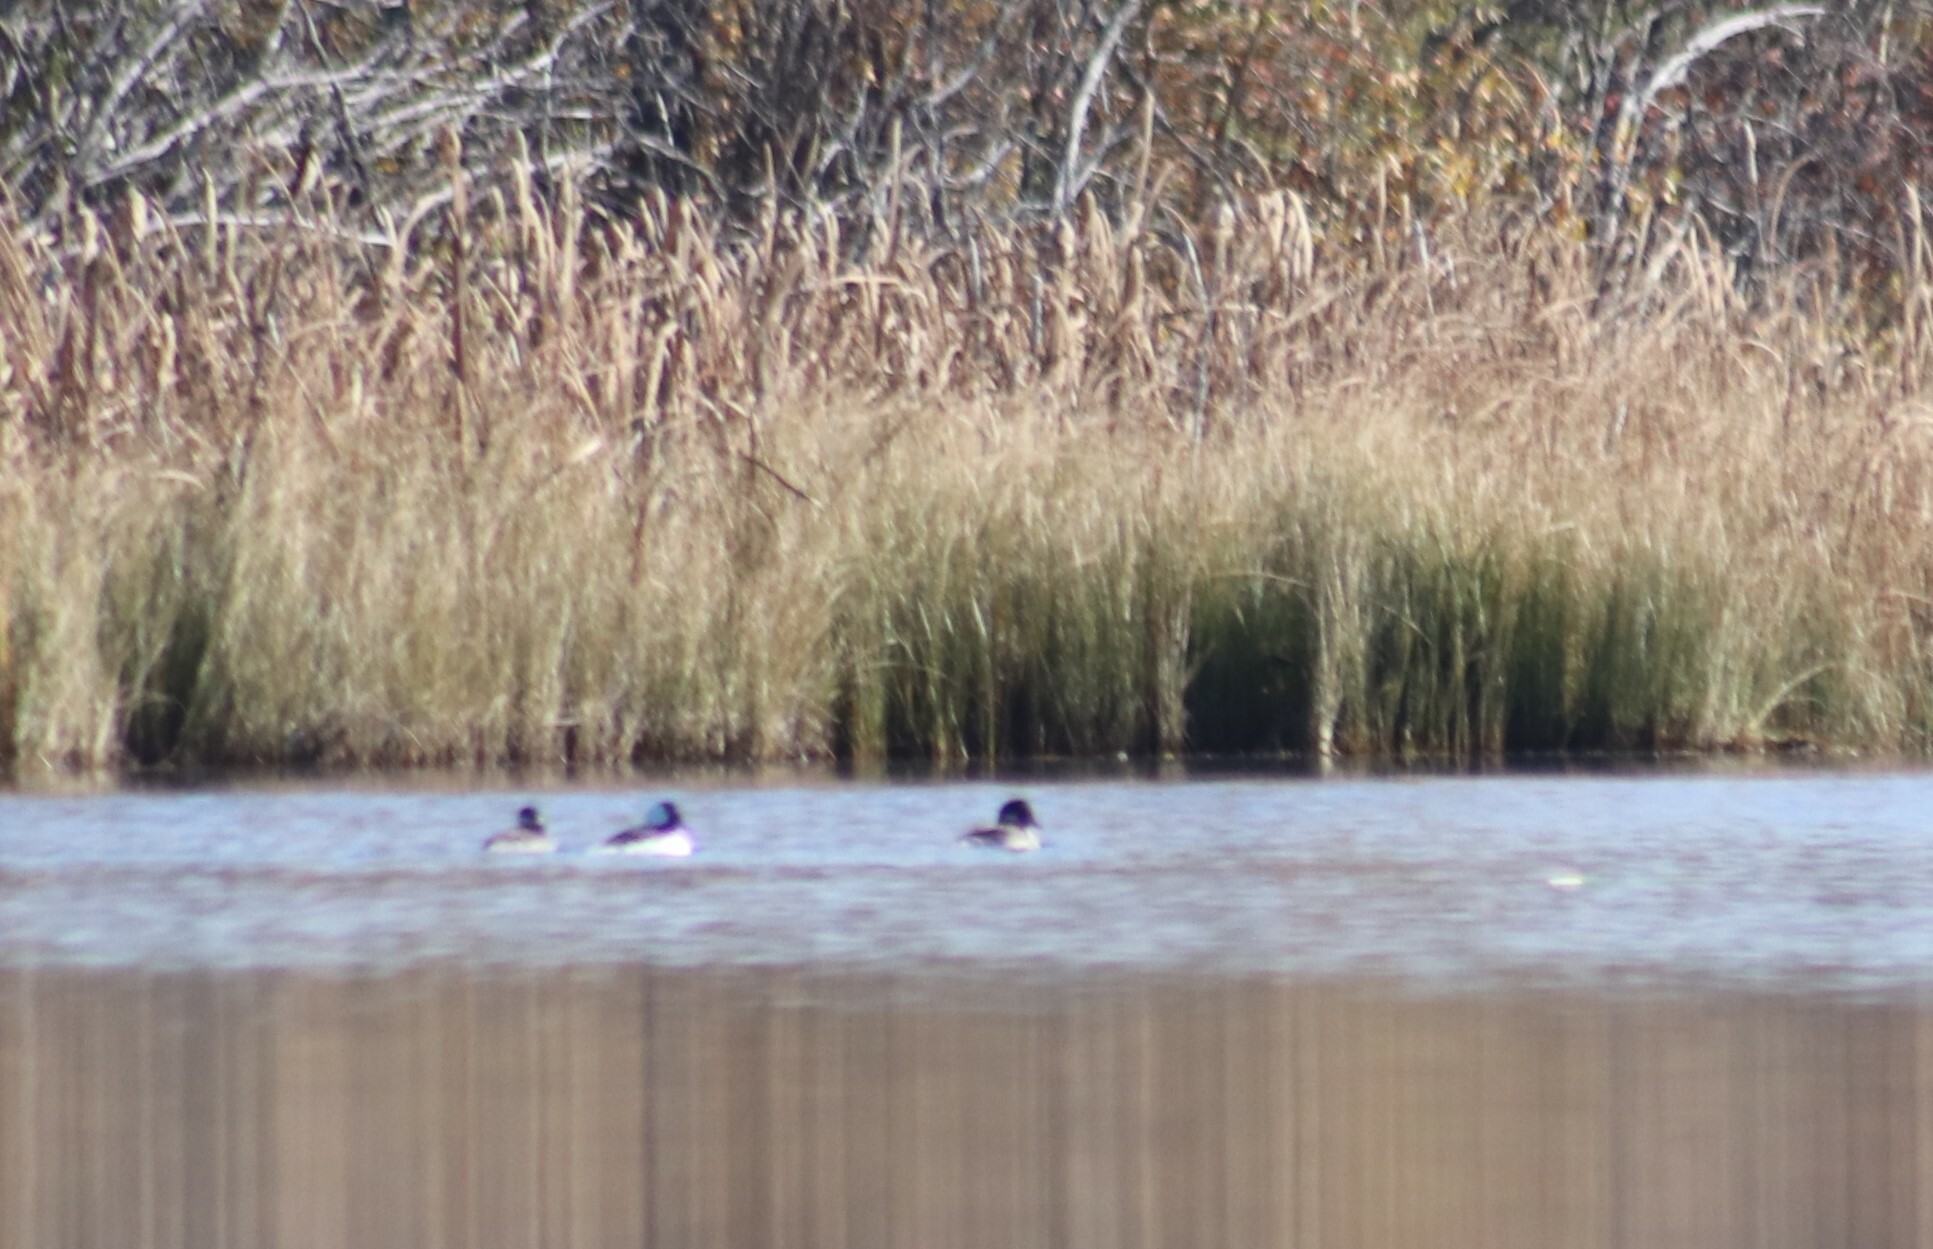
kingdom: Animalia
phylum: Chordata
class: Aves
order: Anseriformes
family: Anatidae
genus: Bucephala
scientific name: Bucephala albeola
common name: Bufflehead
